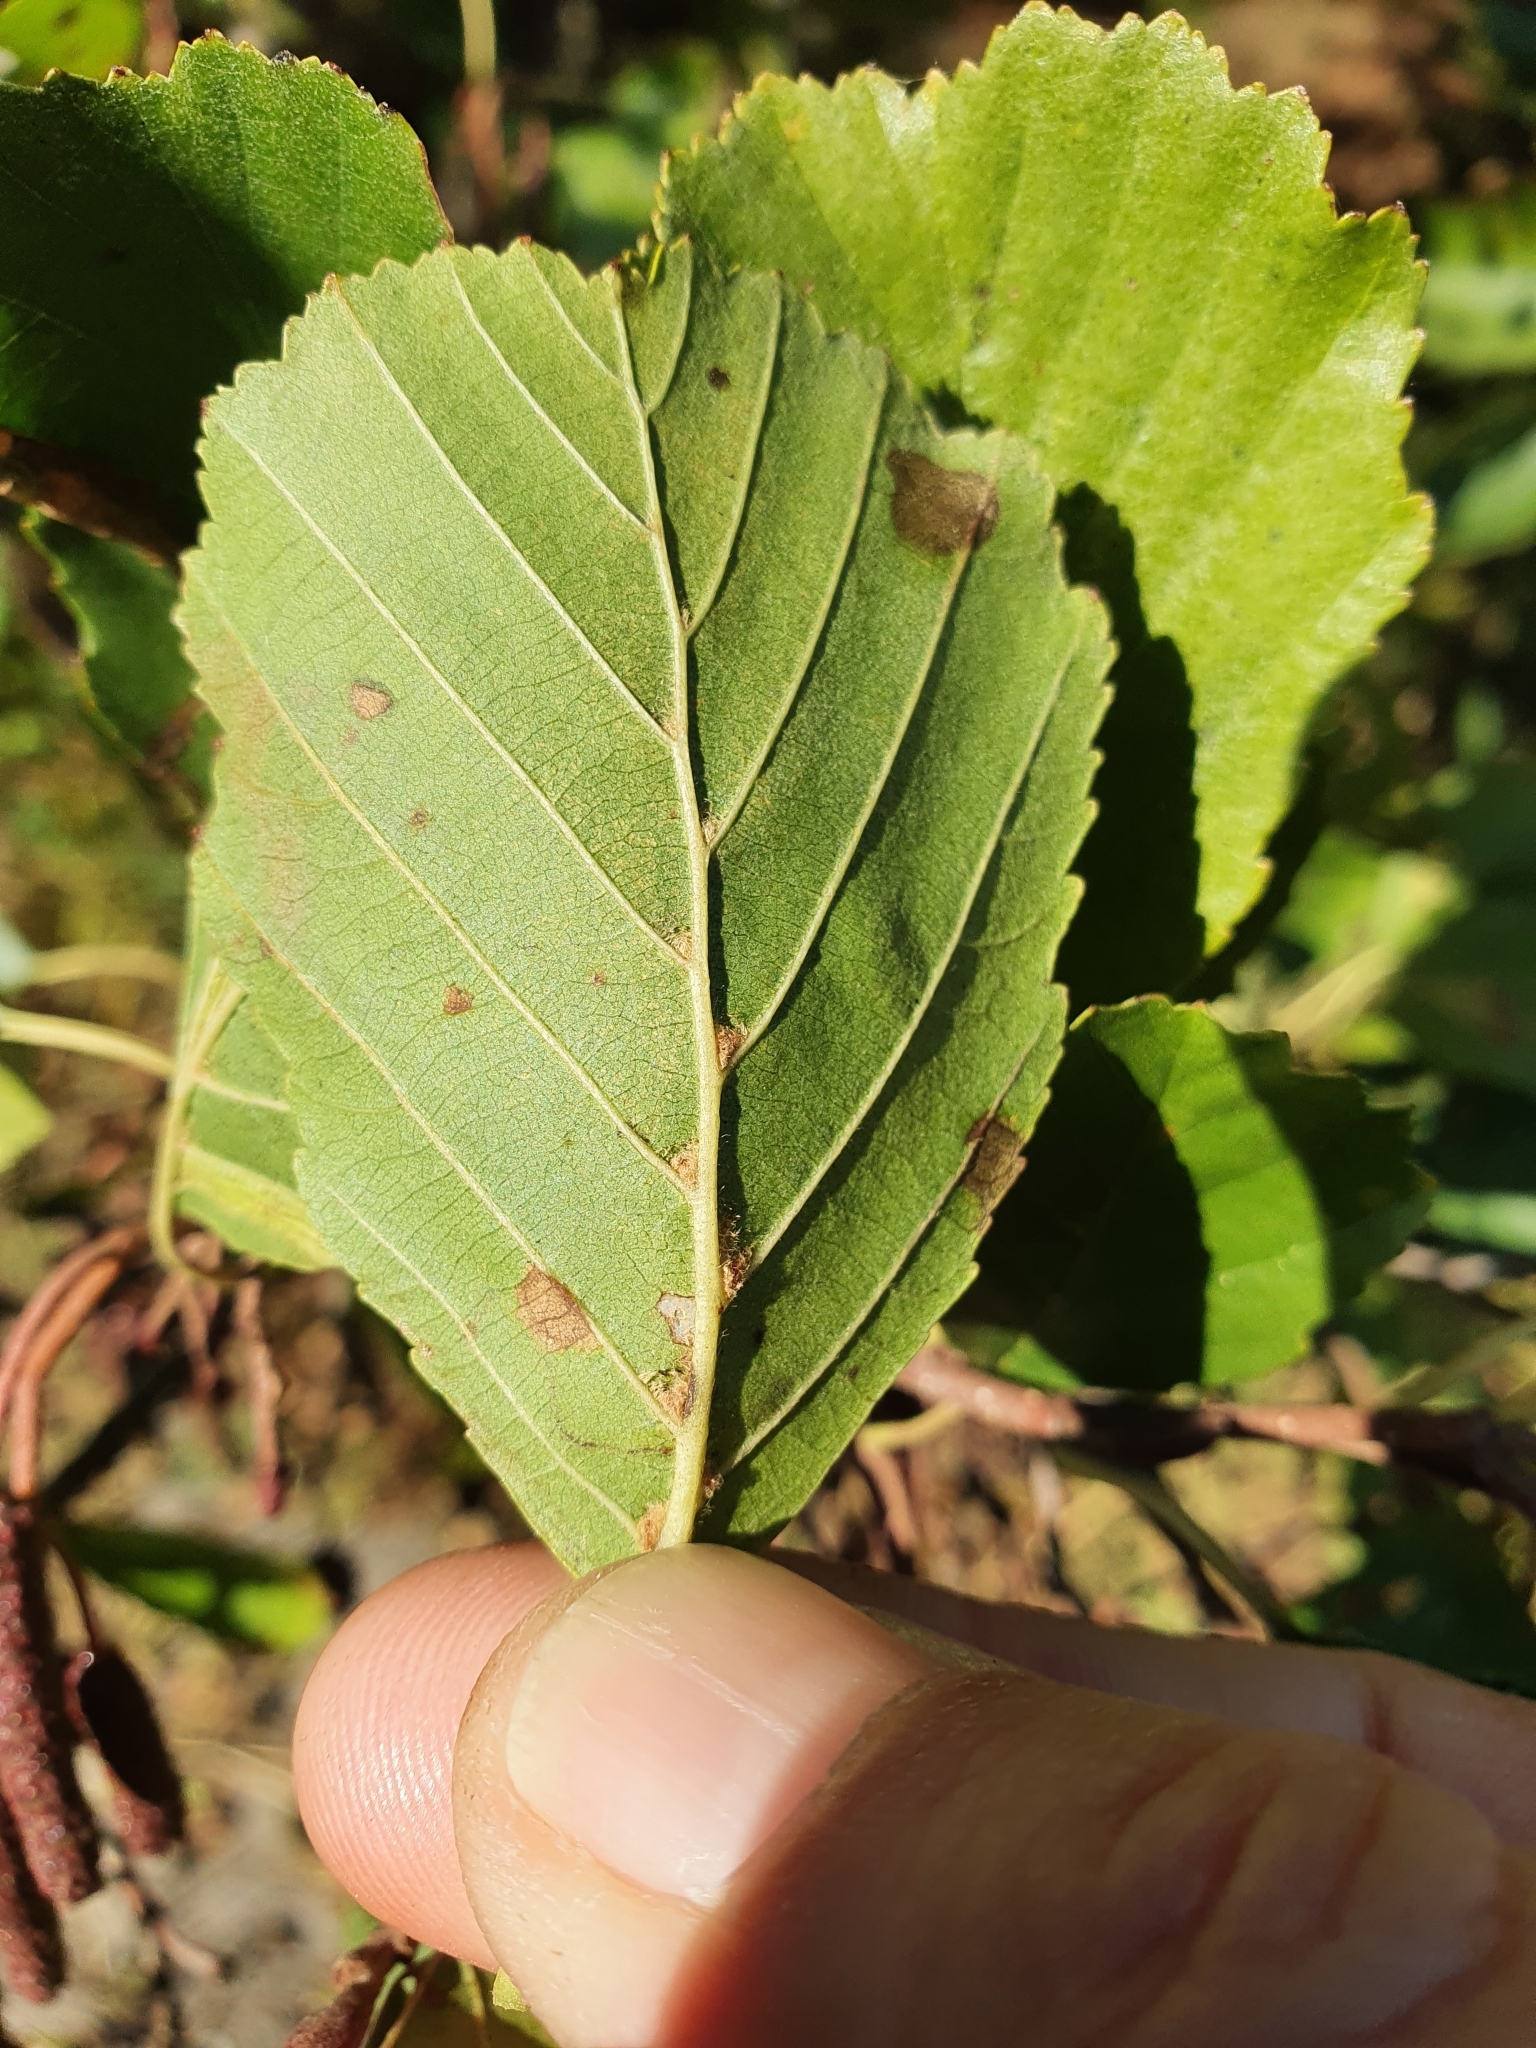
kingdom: Animalia
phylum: Arthropoda
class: Arachnida
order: Trombidiformes
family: Eriophyidae
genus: Eriophyes
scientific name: Eriophyes inangulis
